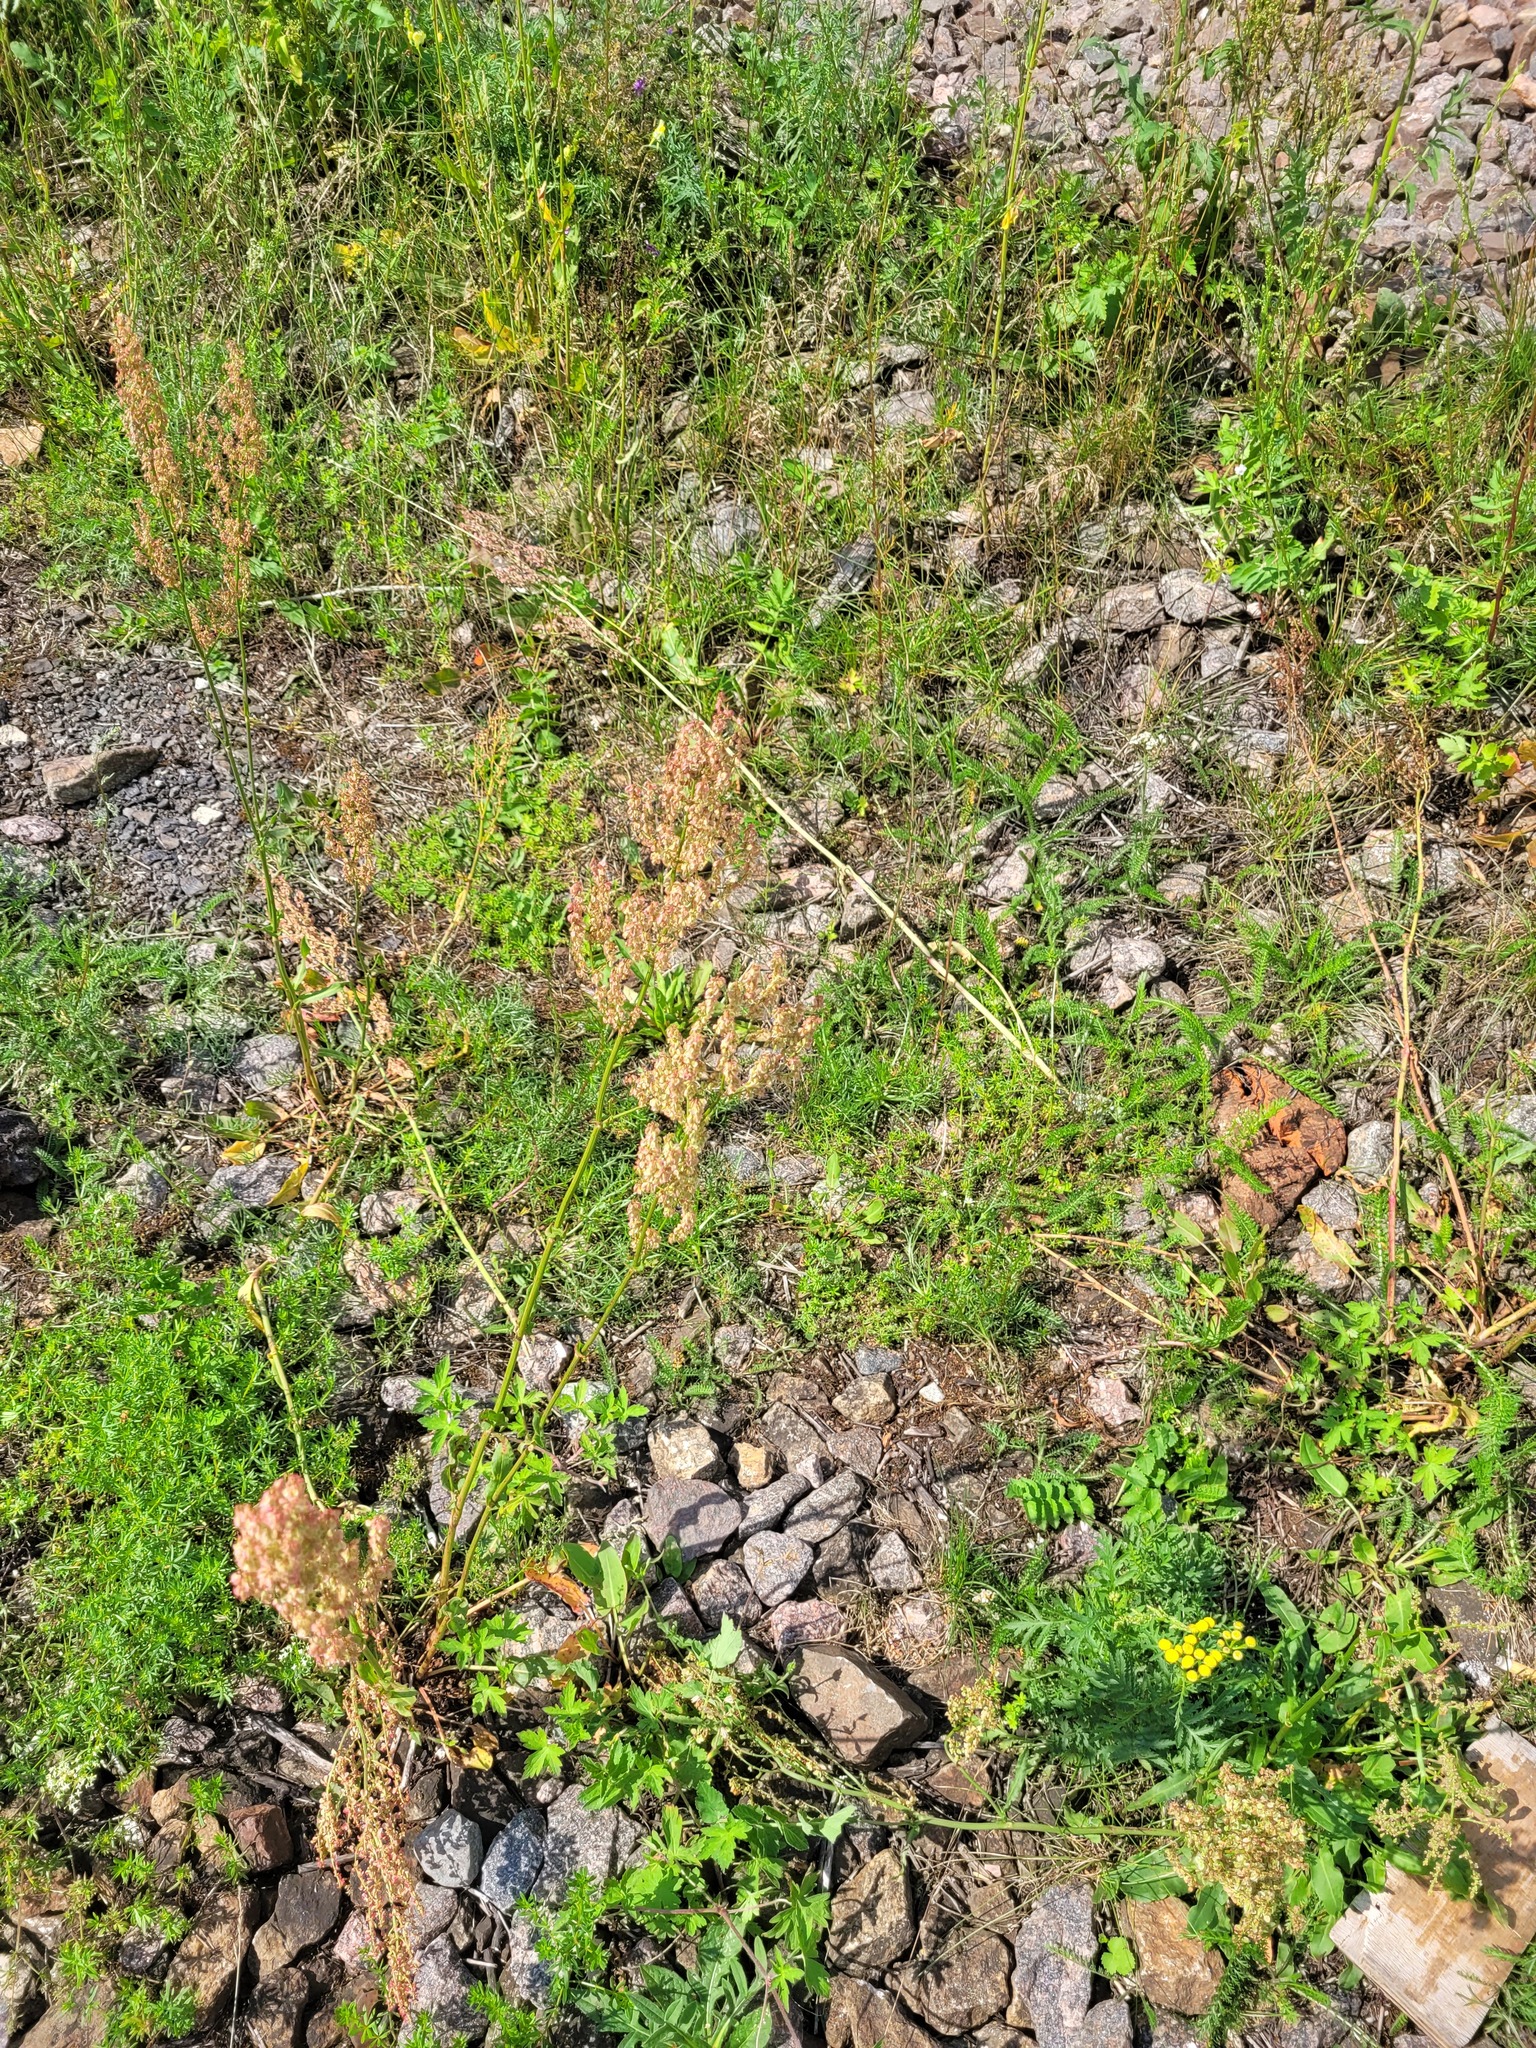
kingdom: Plantae
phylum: Tracheophyta
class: Magnoliopsida
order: Caryophyllales
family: Polygonaceae
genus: Rumex
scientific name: Rumex thyrsiflorus
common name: Garden sorrel
